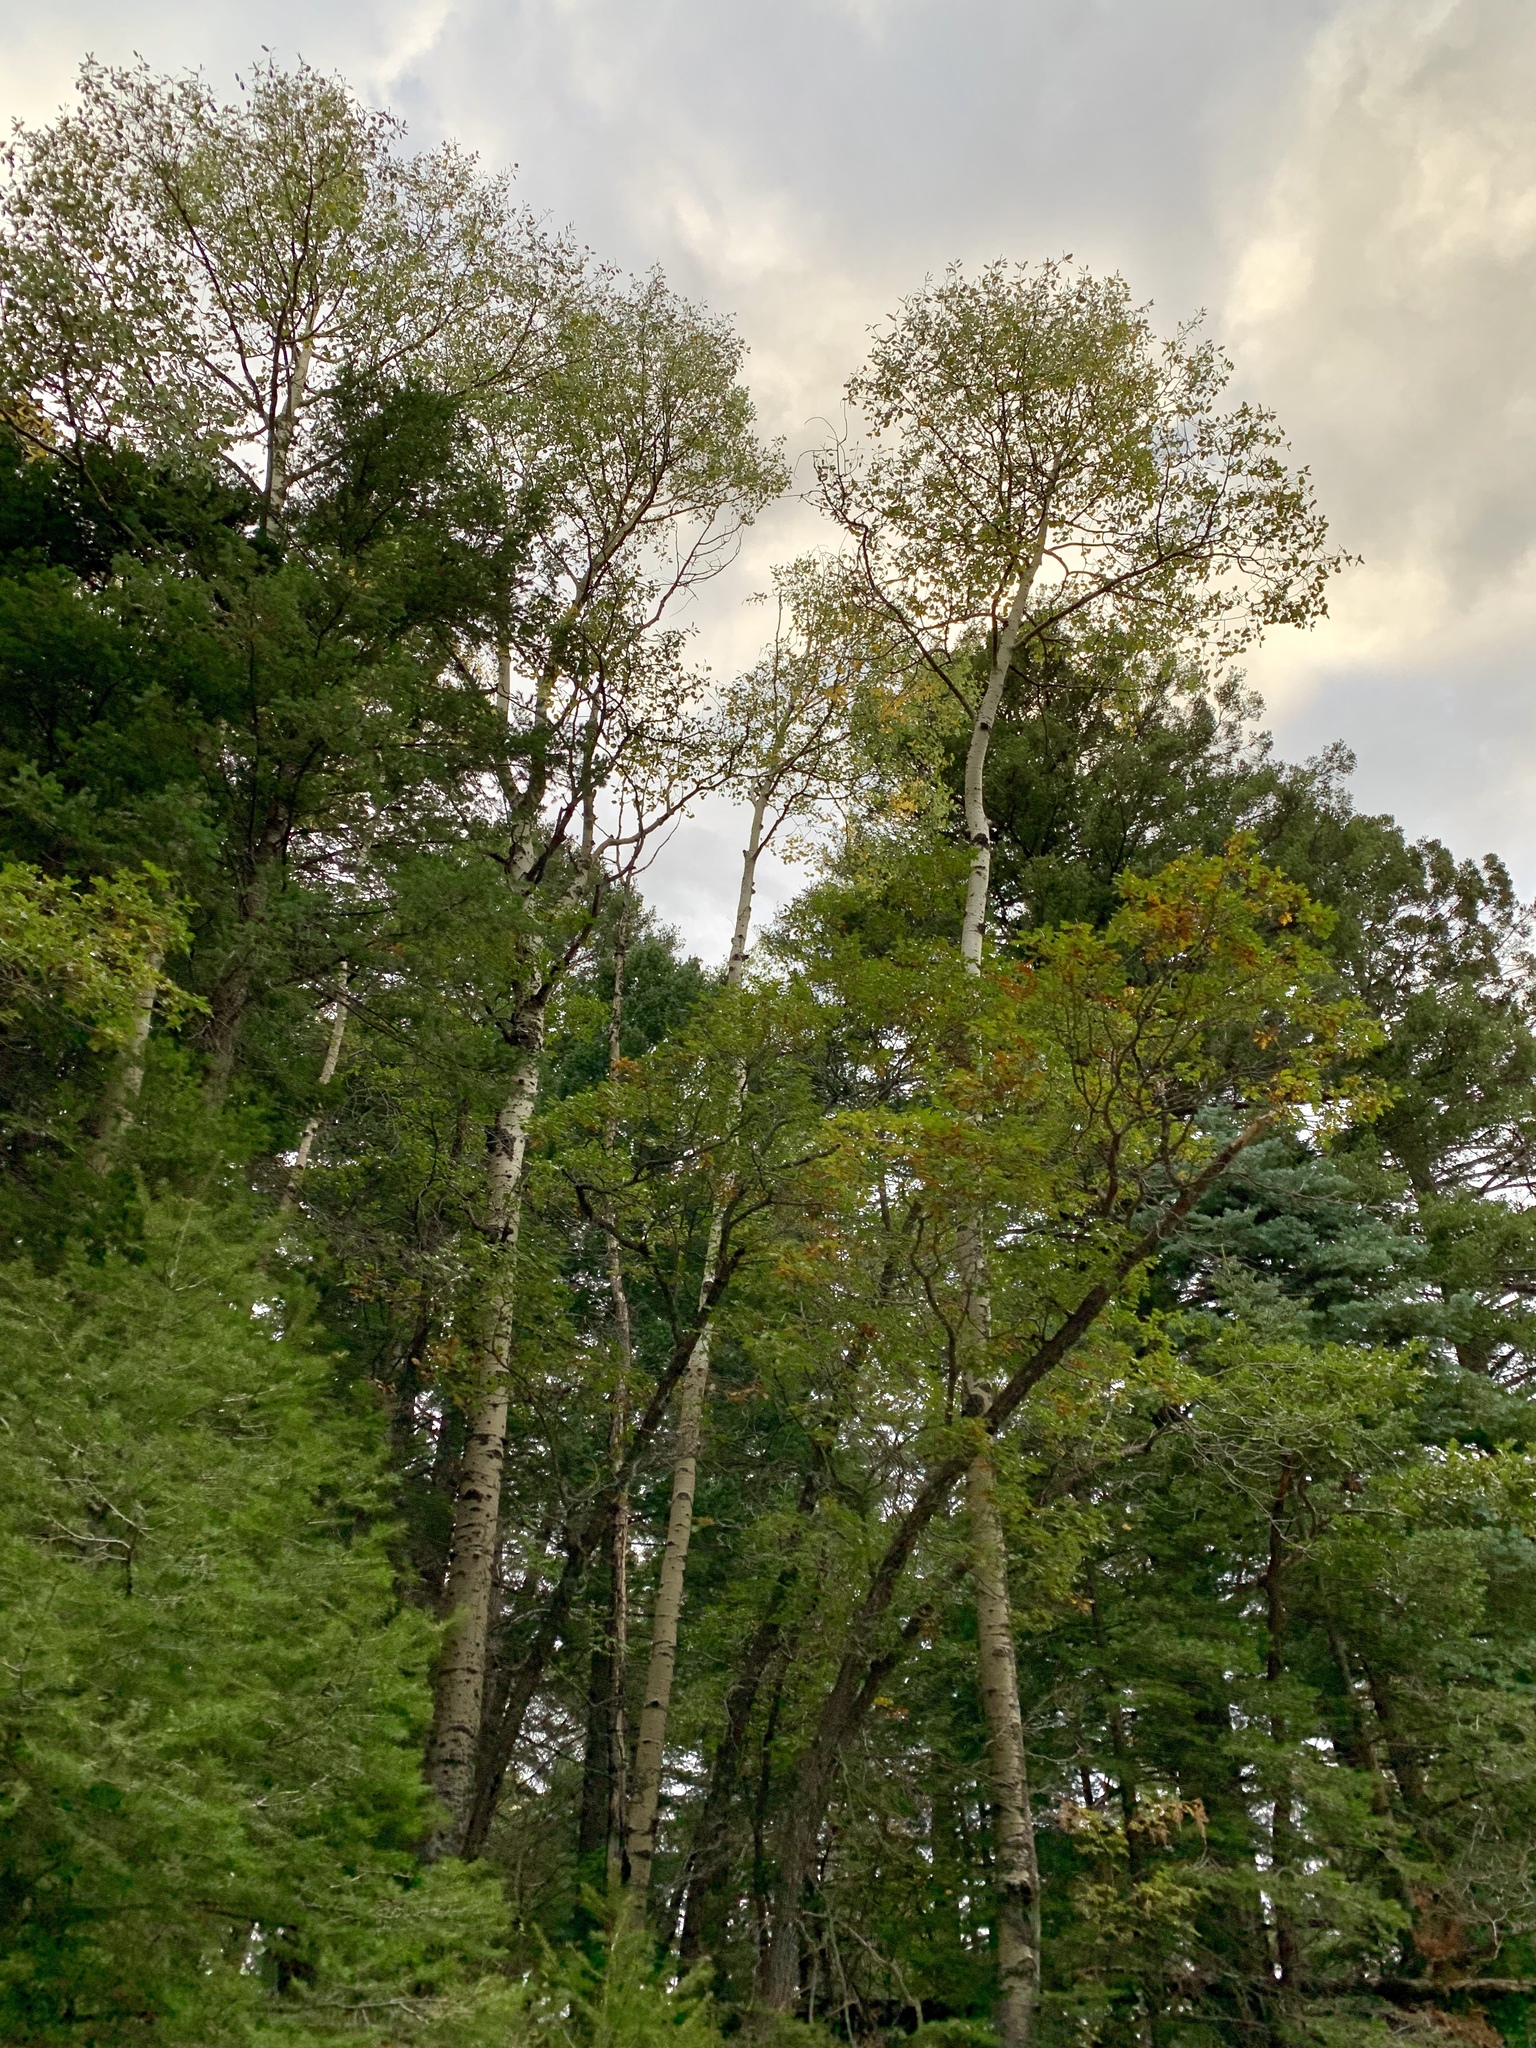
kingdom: Plantae
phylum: Tracheophyta
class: Magnoliopsida
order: Malpighiales
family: Salicaceae
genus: Populus
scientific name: Populus tremuloides
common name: Quaking aspen
